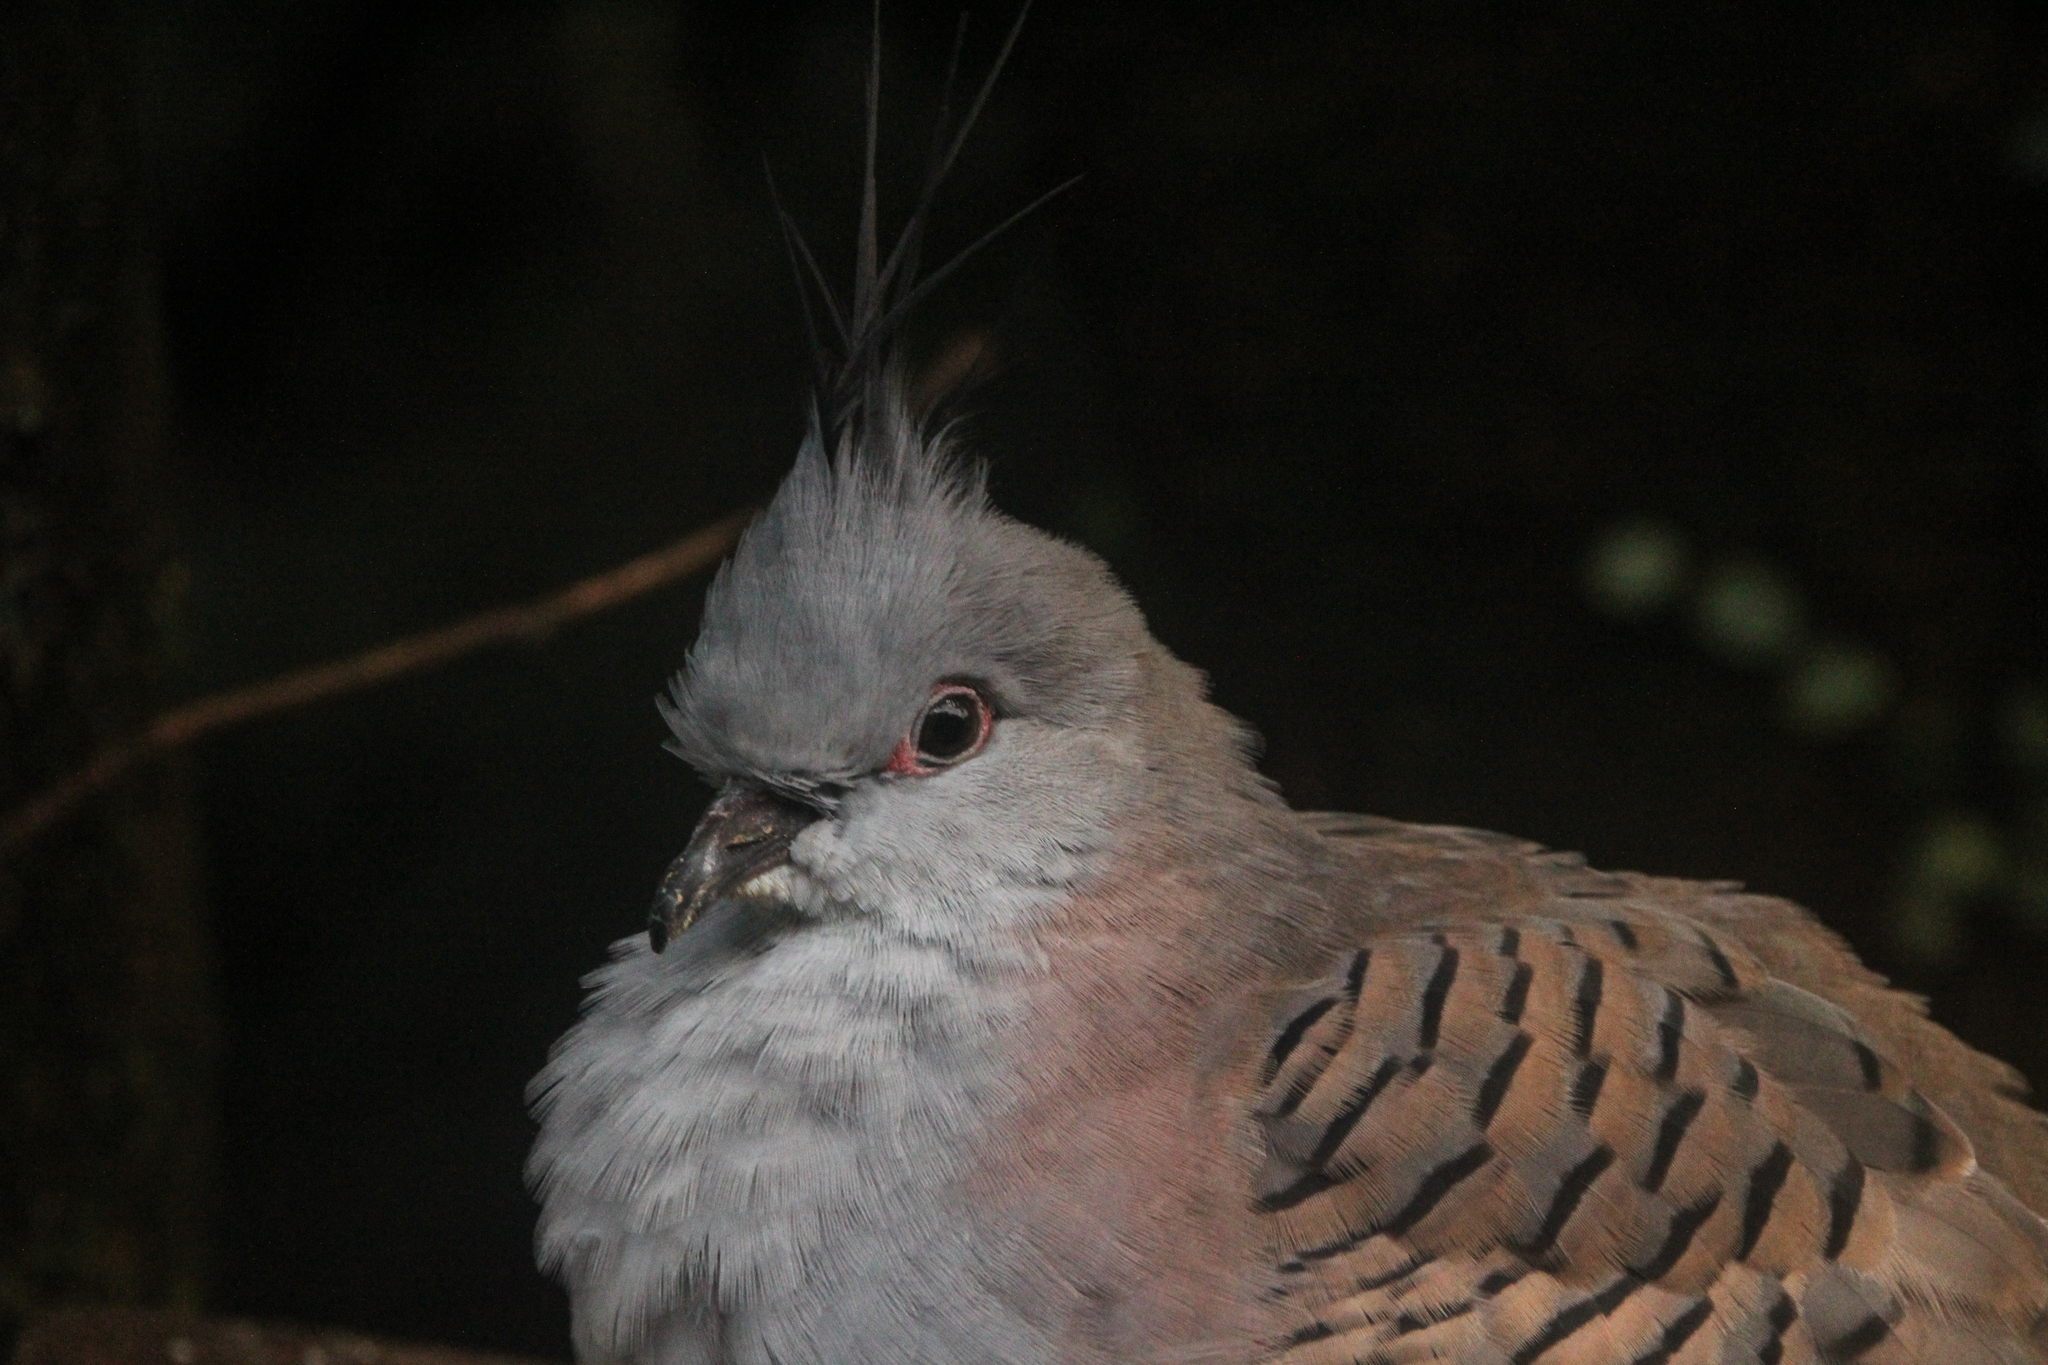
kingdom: Animalia
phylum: Chordata
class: Aves
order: Columbiformes
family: Columbidae
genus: Ocyphaps
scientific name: Ocyphaps lophotes
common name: Crested pigeon
